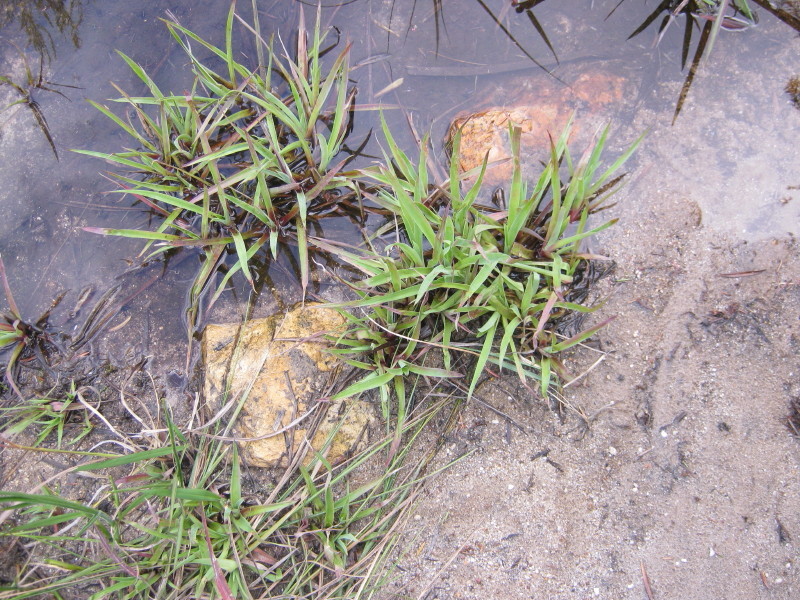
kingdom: Plantae
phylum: Tracheophyta
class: Liliopsida
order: Poales
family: Juncaceae
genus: Juncus
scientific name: Juncus lomatophyllus
